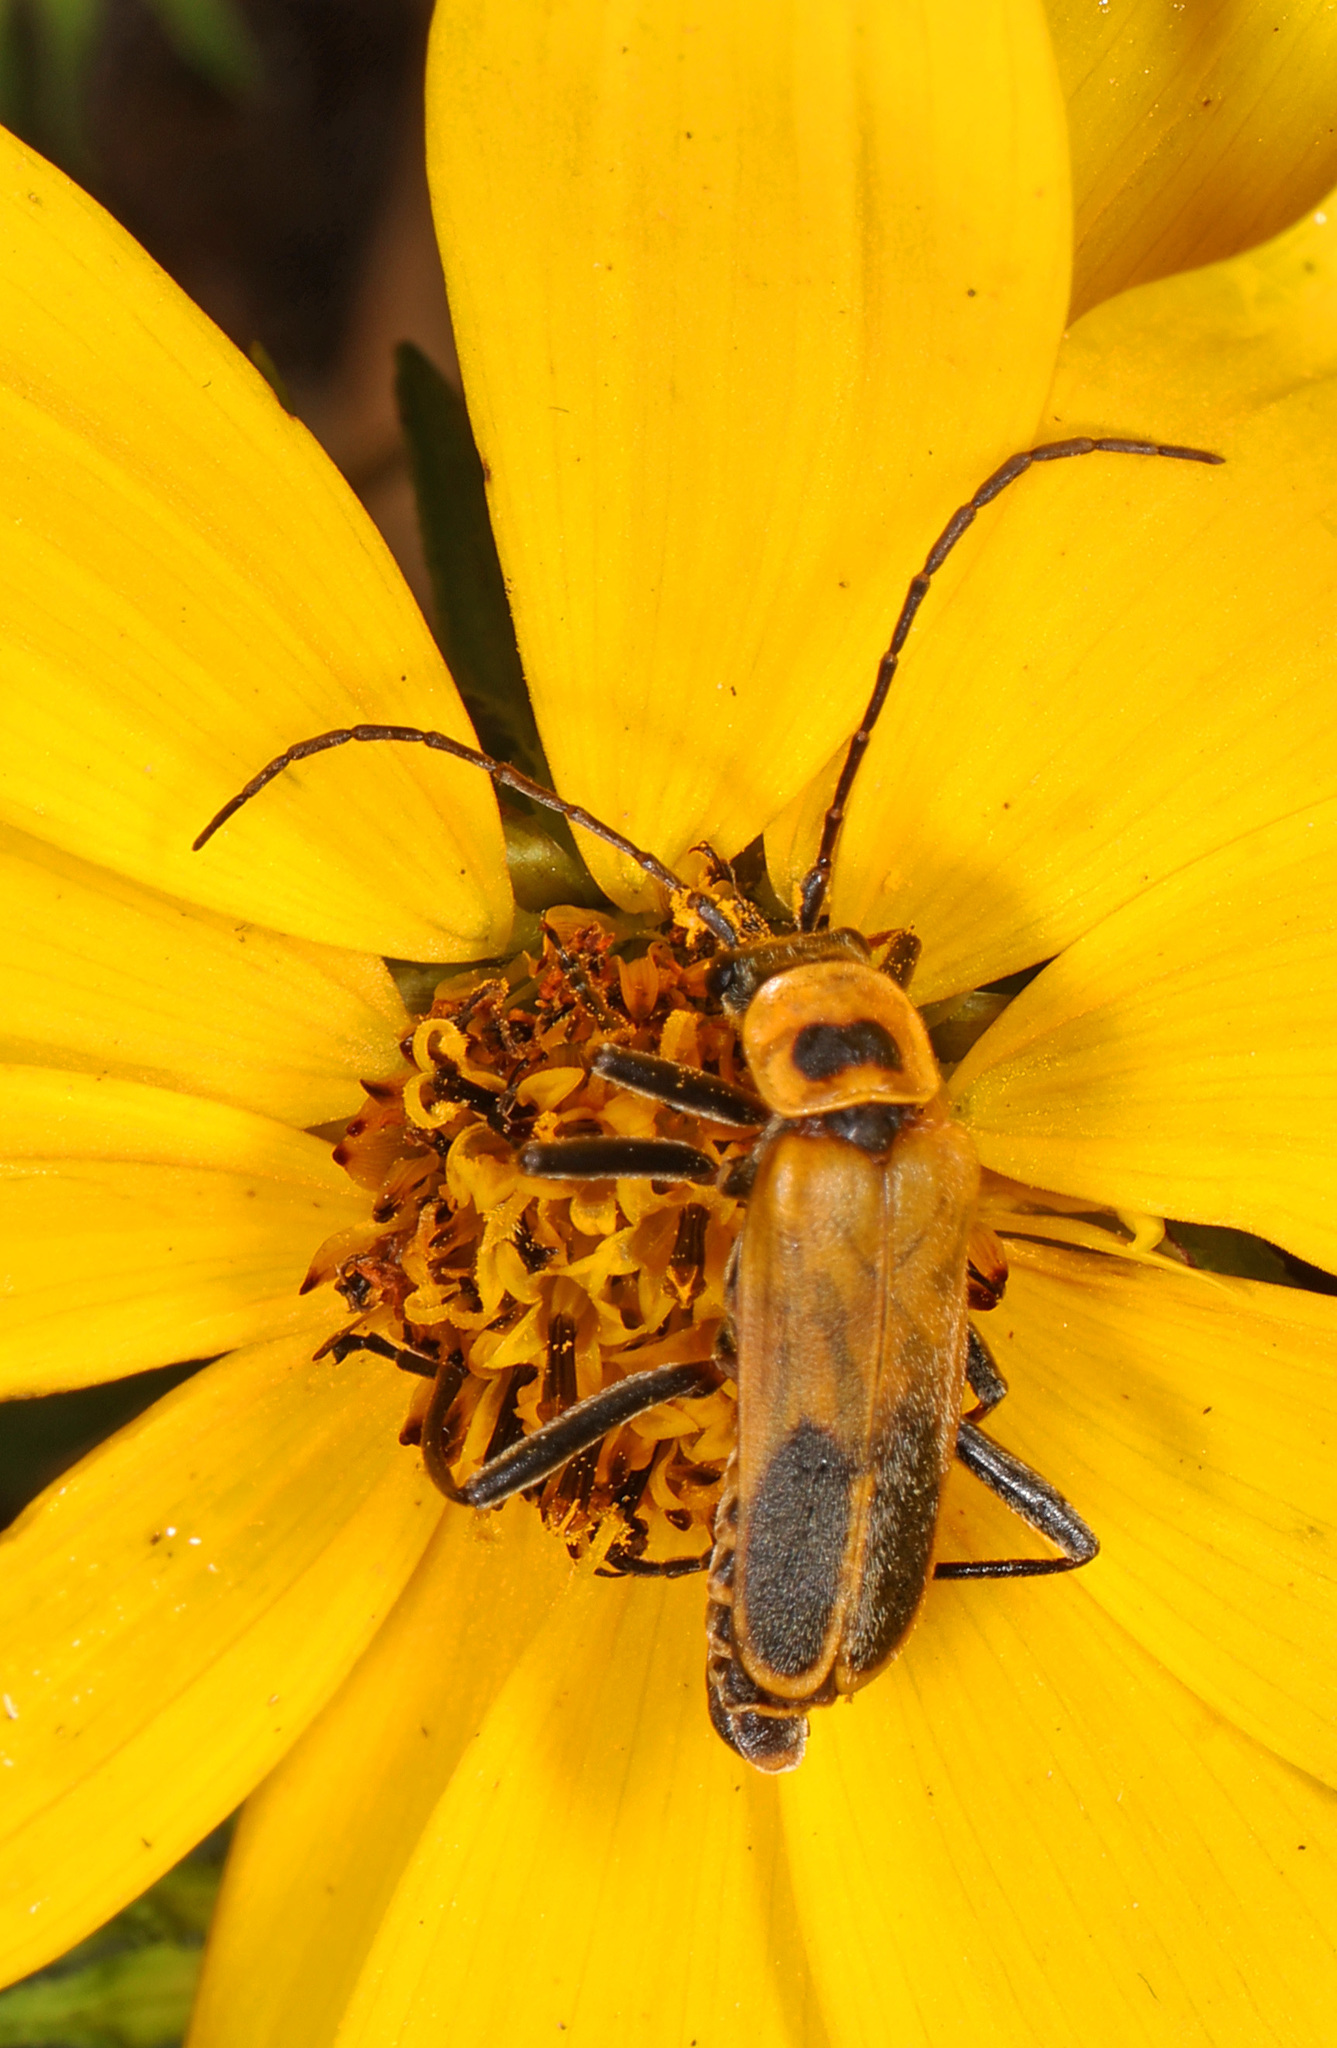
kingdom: Animalia
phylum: Arthropoda
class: Insecta
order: Coleoptera
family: Cantharidae
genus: Chauliognathus
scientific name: Chauliognathus pensylvanicus
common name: Goldenrod soldier beetle
